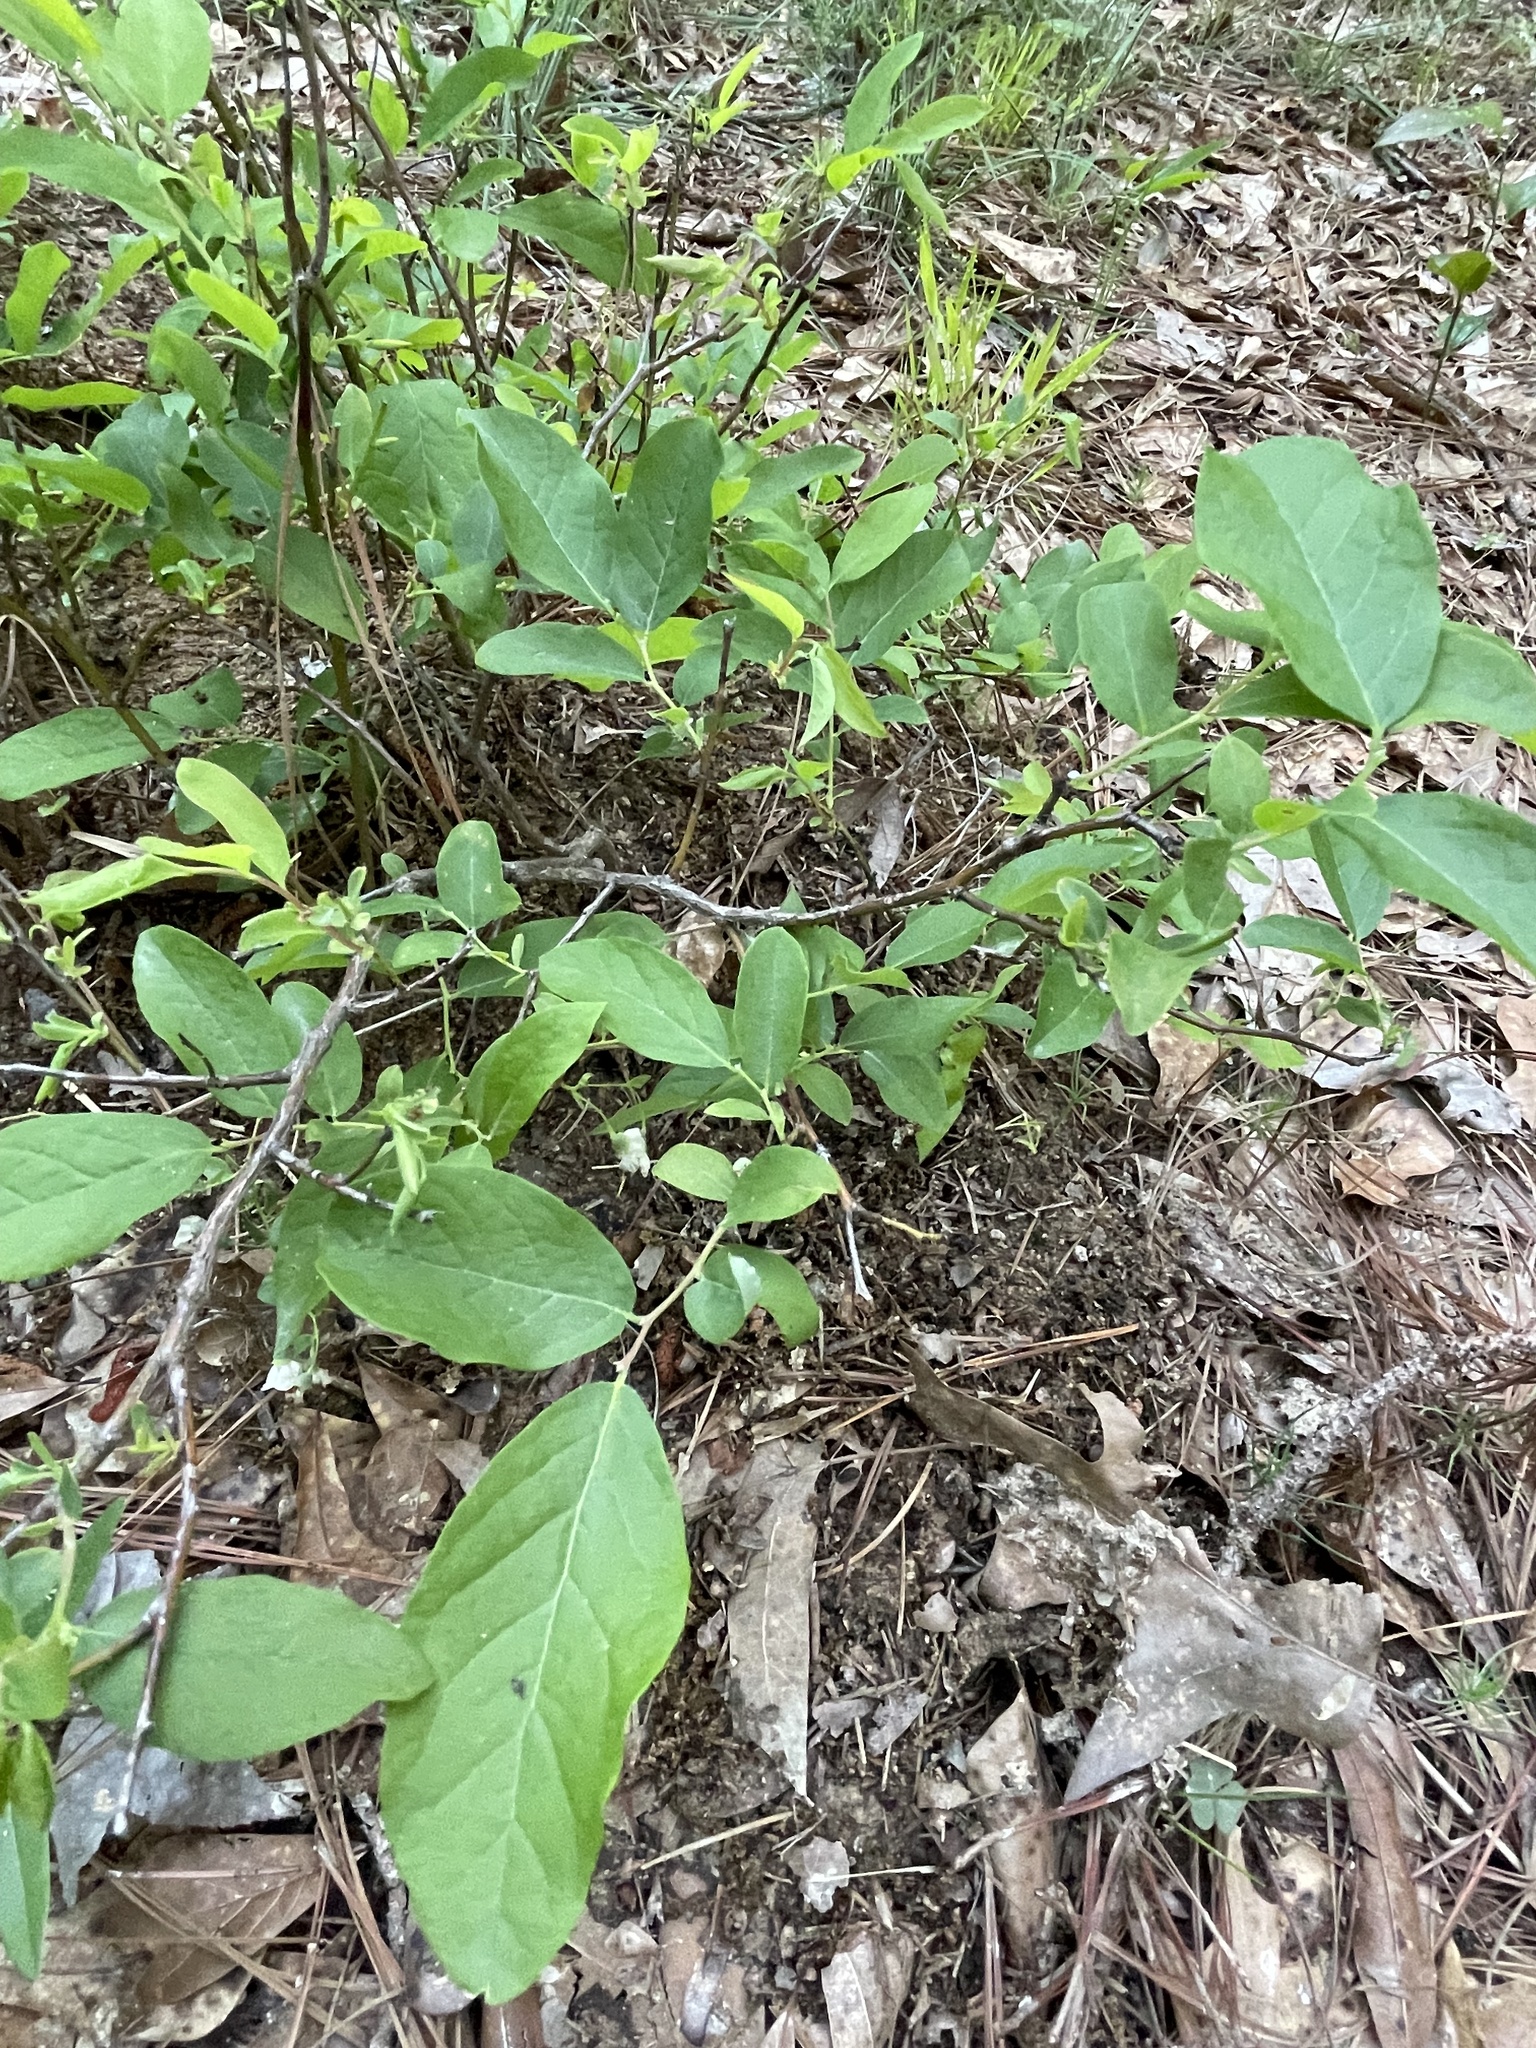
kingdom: Plantae
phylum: Tracheophyta
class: Magnoliopsida
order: Ericales
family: Ericaceae
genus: Vaccinium
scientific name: Vaccinium stamineum
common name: Deerberry
